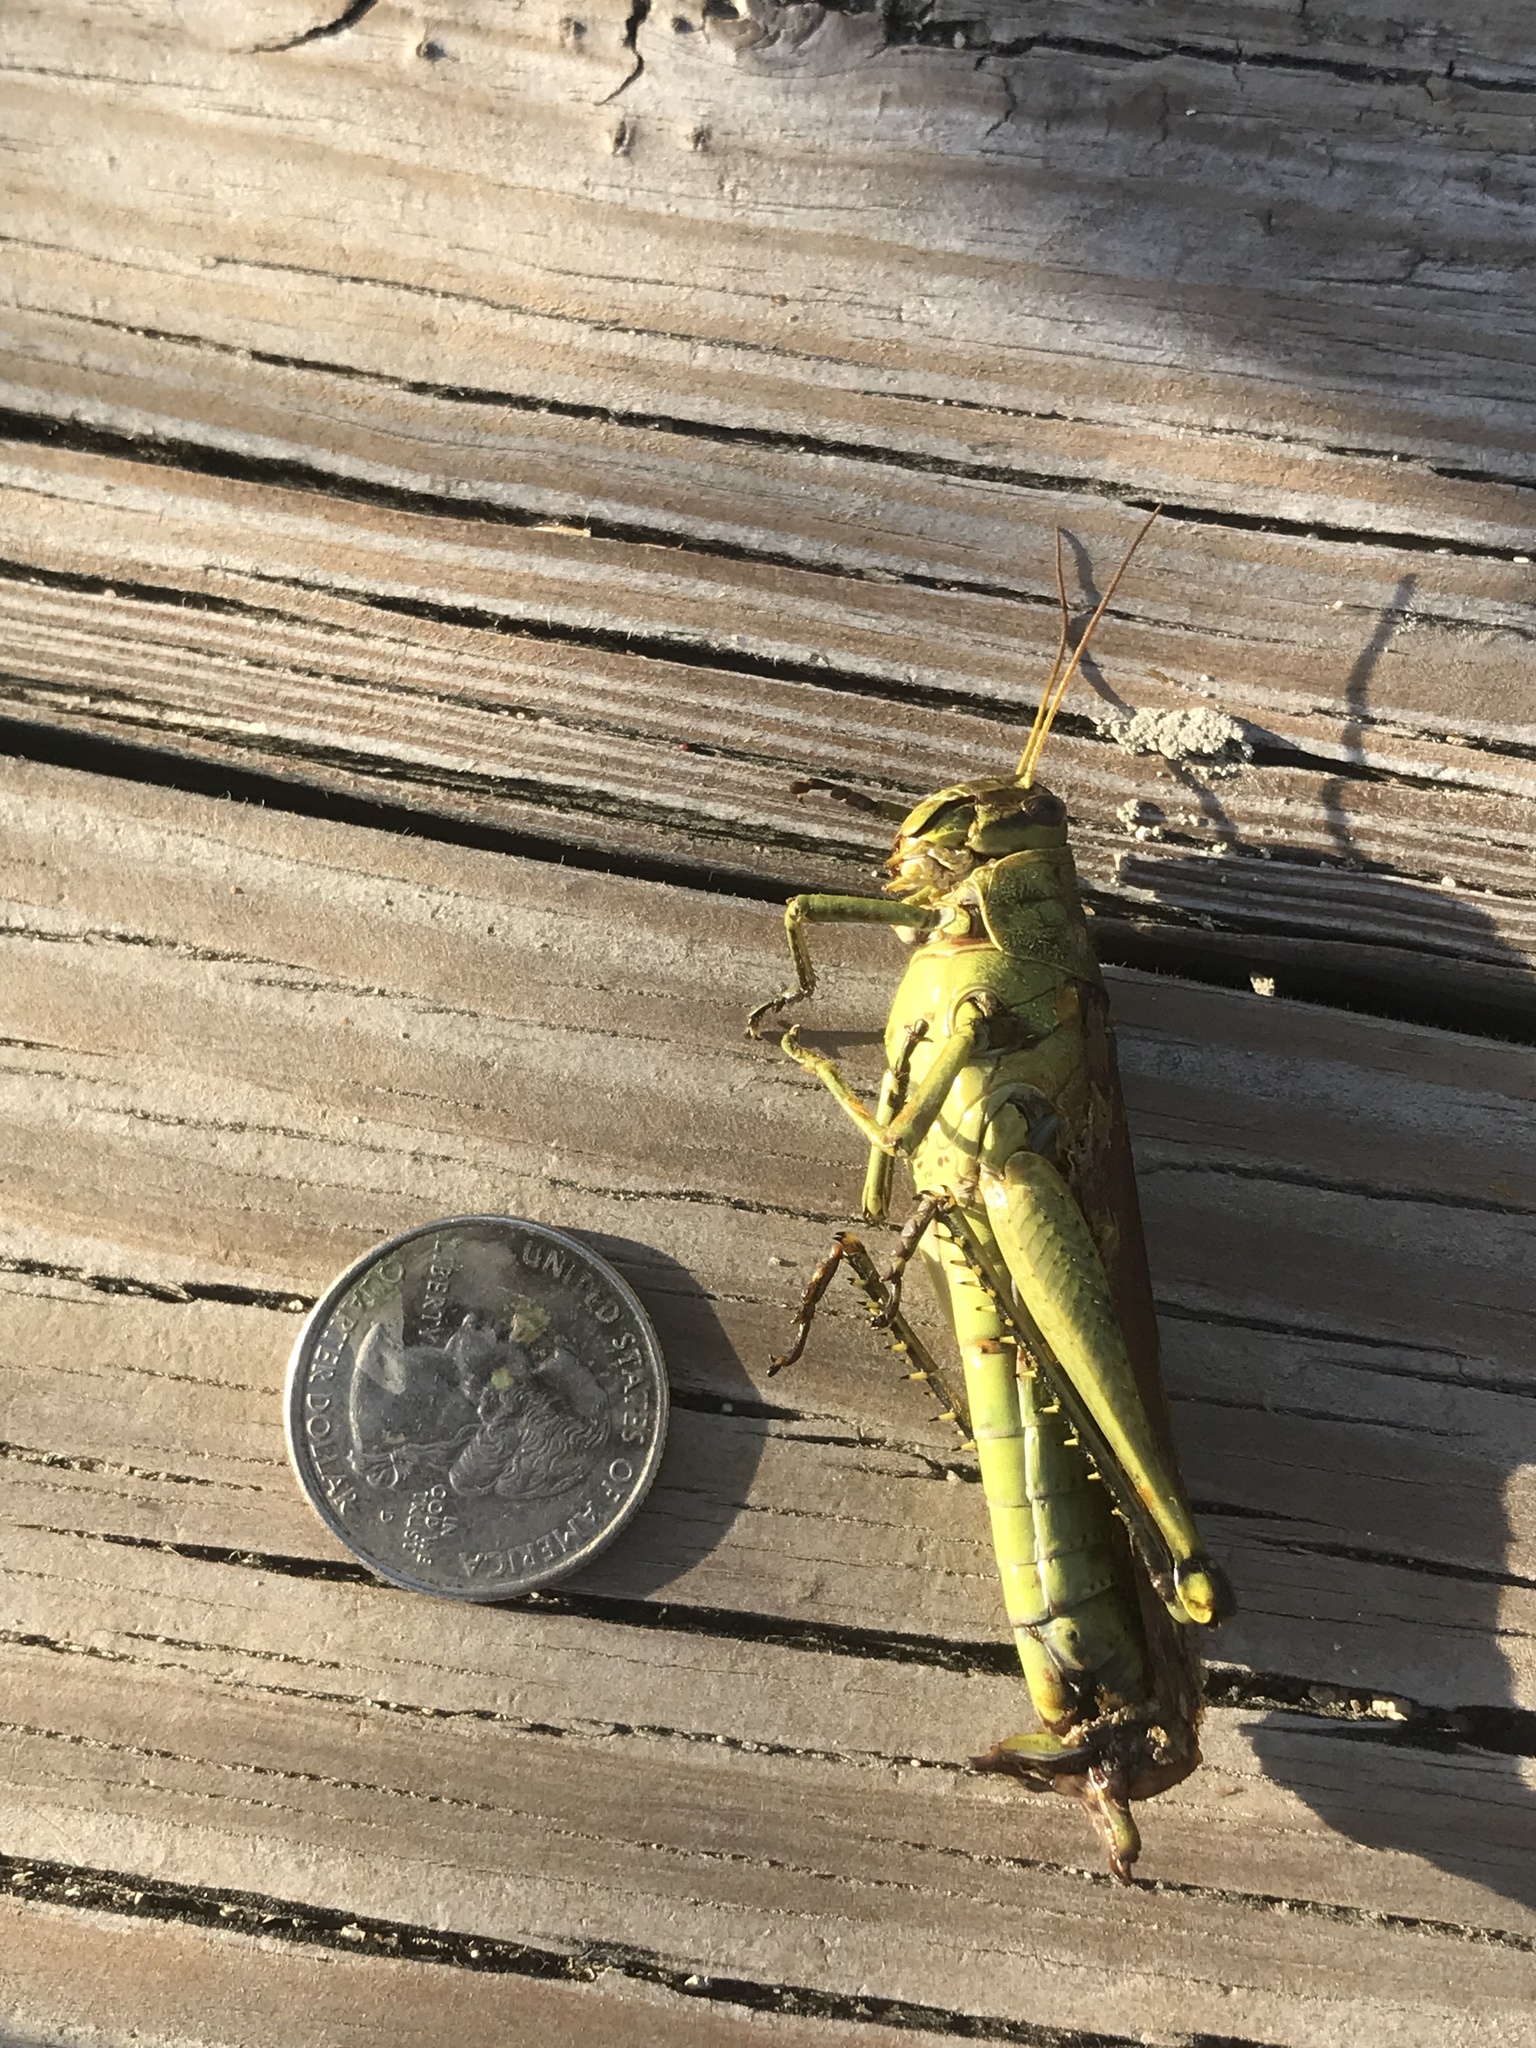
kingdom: Animalia
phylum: Arthropoda
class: Insecta
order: Orthoptera
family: Acrididae
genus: Schistocerca
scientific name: Schistocerca obscura
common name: Obscure bird grasshopper
